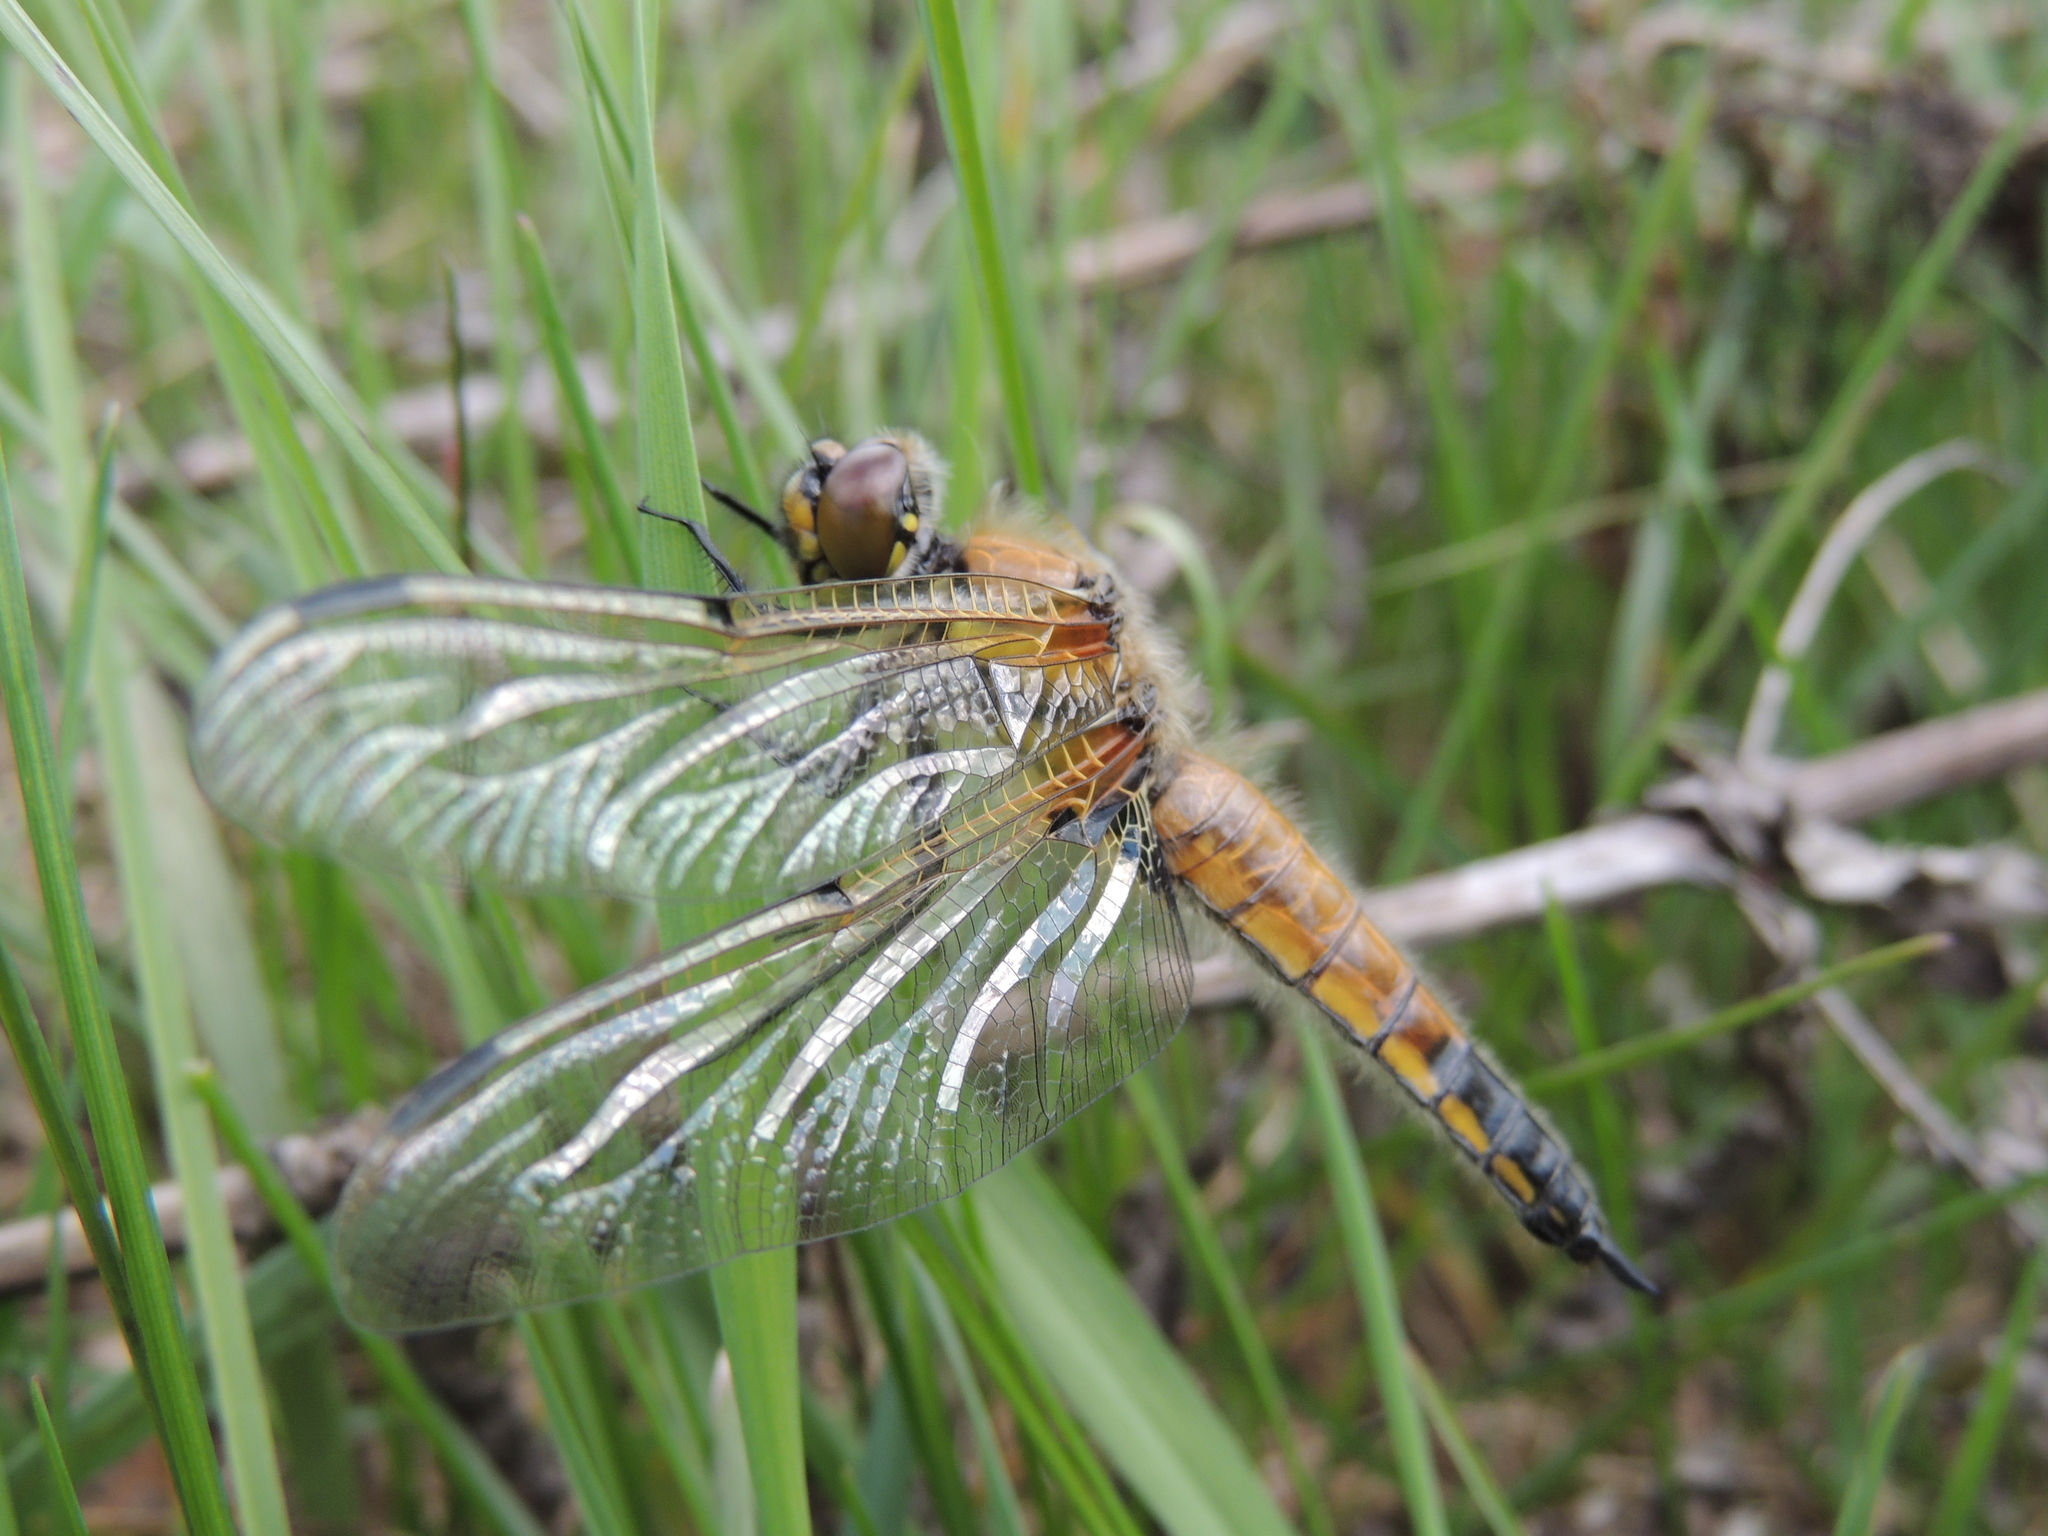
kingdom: Animalia
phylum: Arthropoda
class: Insecta
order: Odonata
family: Libellulidae
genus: Libellula
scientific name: Libellula quadrimaculata
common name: Four-spotted chaser
